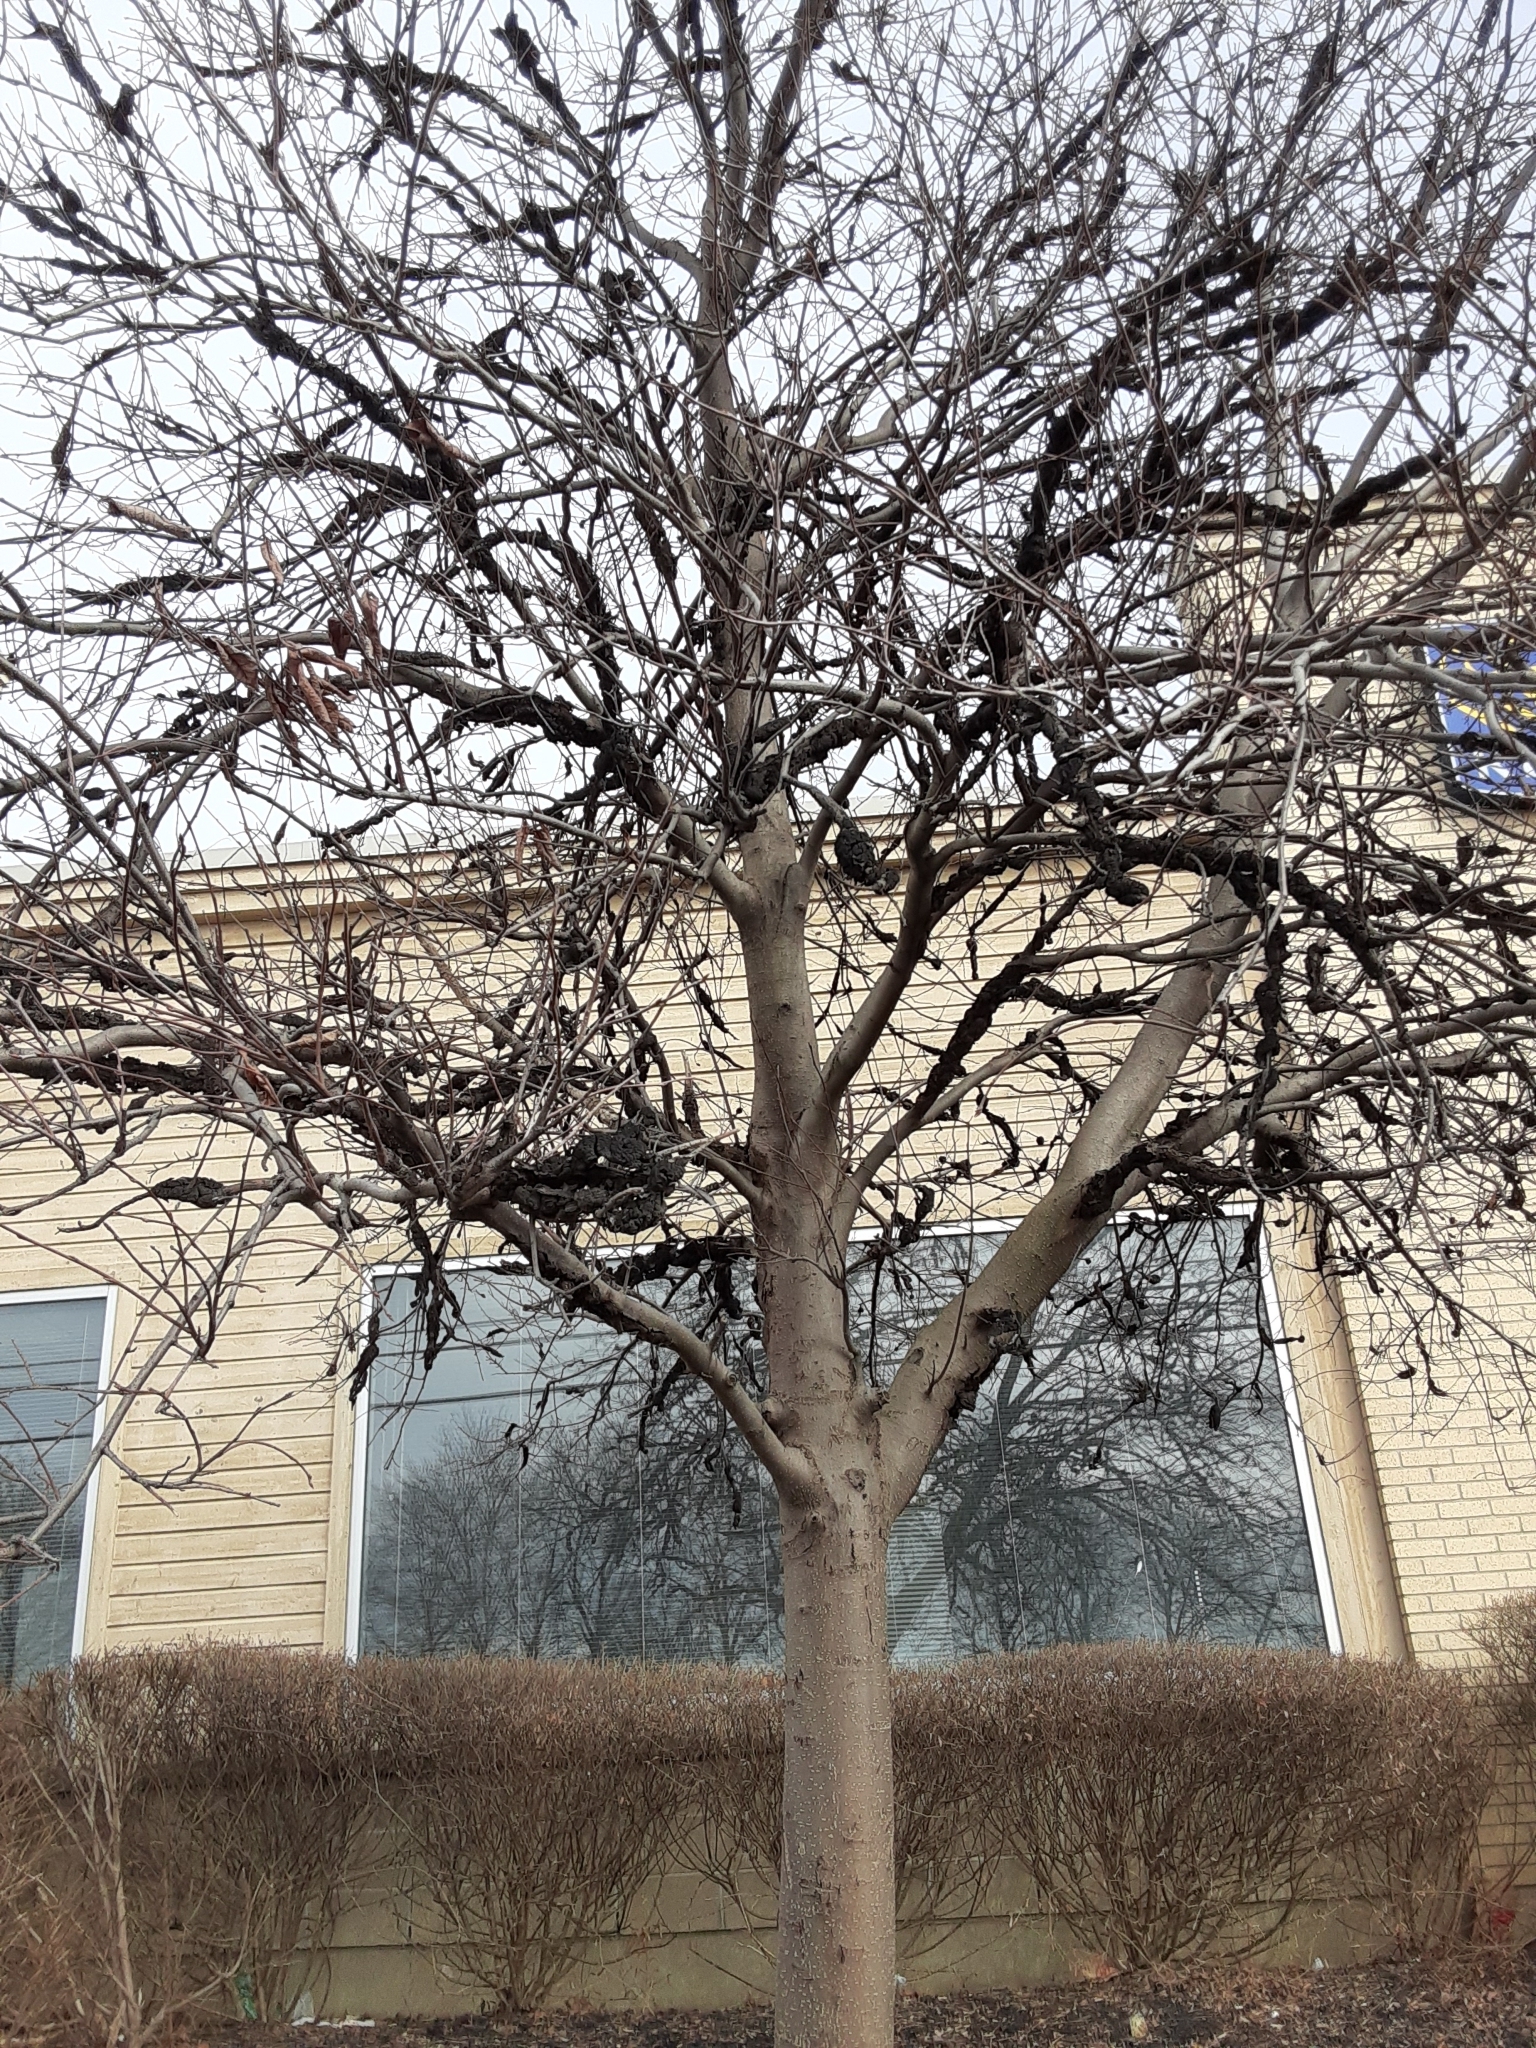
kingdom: Fungi
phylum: Ascomycota
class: Dothideomycetes
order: Venturiales
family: Venturiaceae
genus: Apiosporina
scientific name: Apiosporina morbosa
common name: Black knot
